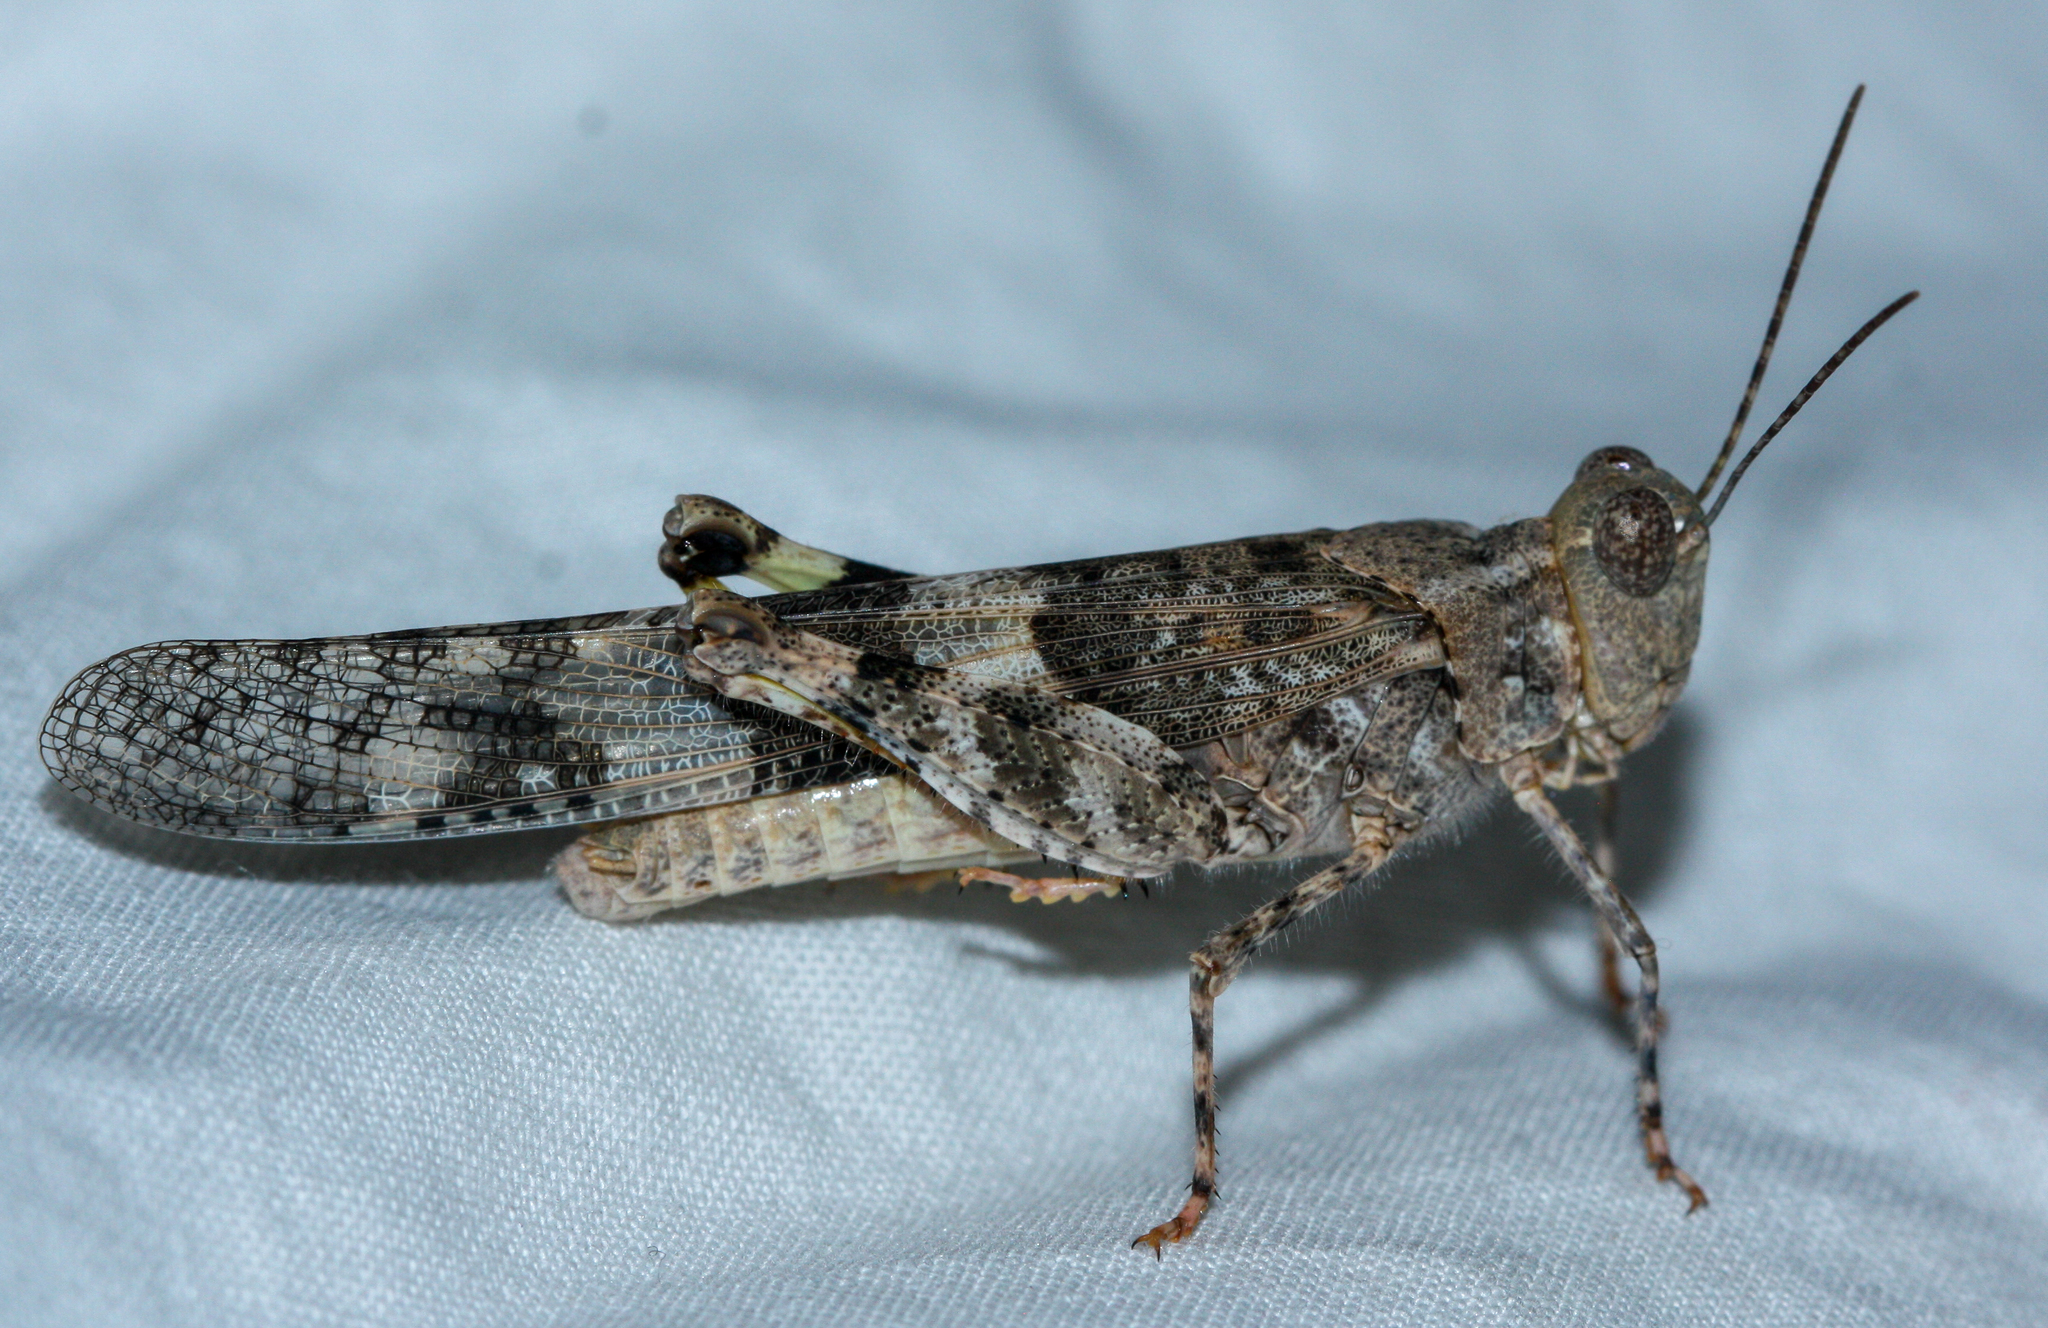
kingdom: Animalia
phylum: Arthropoda
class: Insecta
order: Orthoptera
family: Acrididae
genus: Trimerotropis
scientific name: Trimerotropis pallidipennis
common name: Pallid-winged grasshopper
